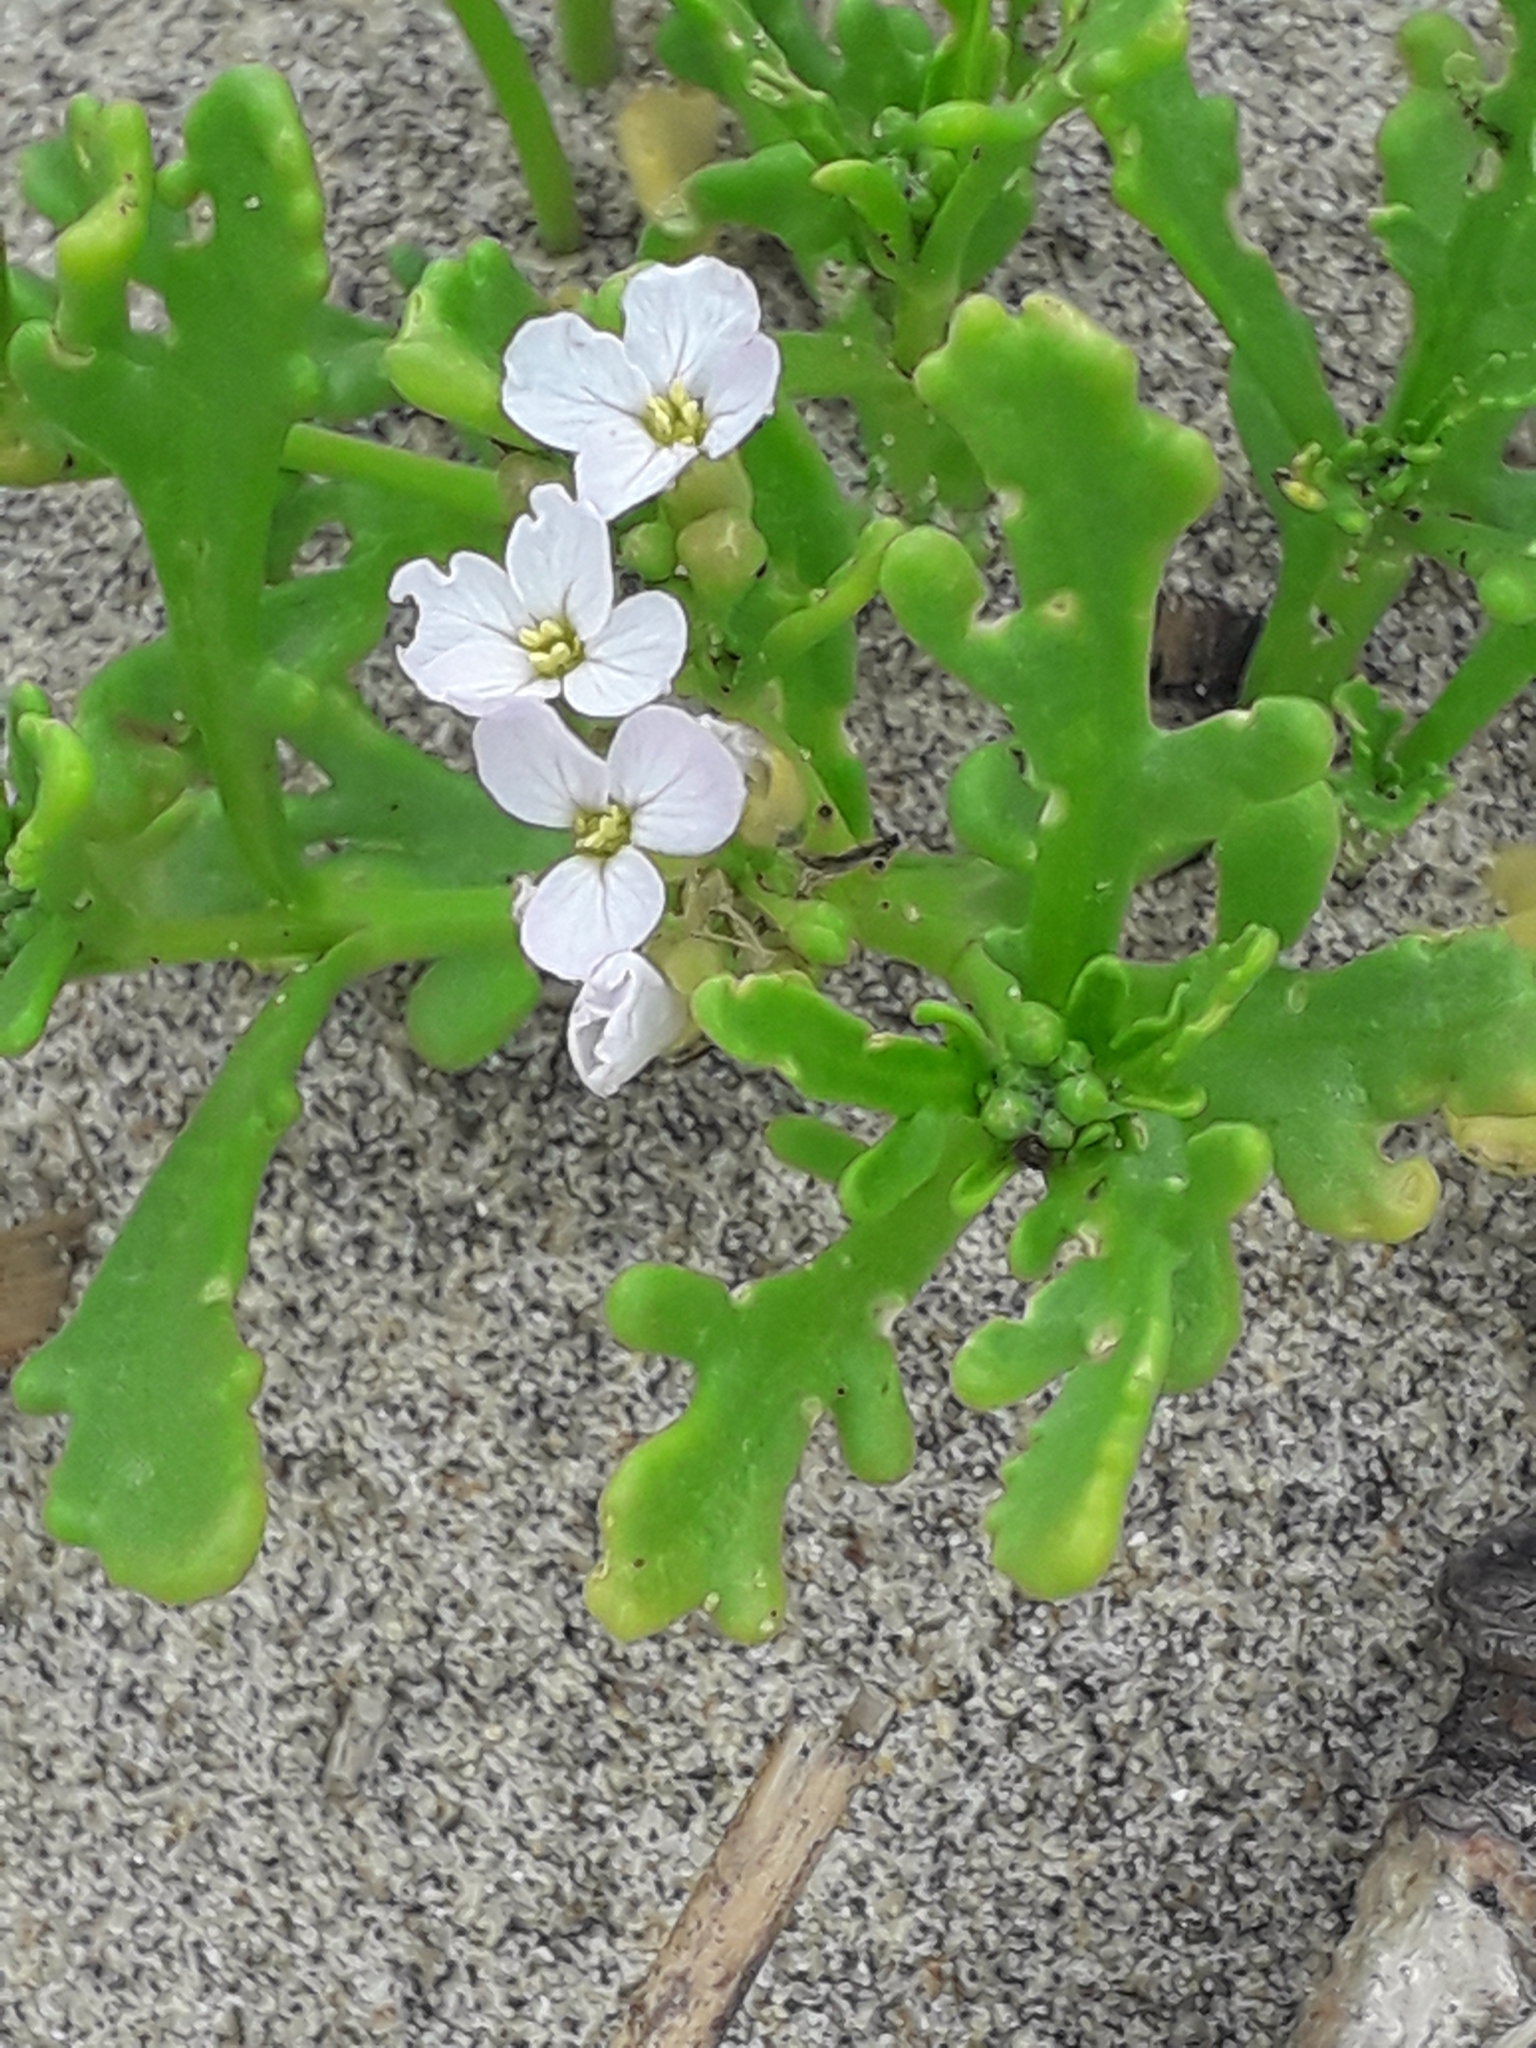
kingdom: Plantae
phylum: Tracheophyta
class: Magnoliopsida
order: Brassicales
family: Brassicaceae
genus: Cakile
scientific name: Cakile maritima
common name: Sea rocket
